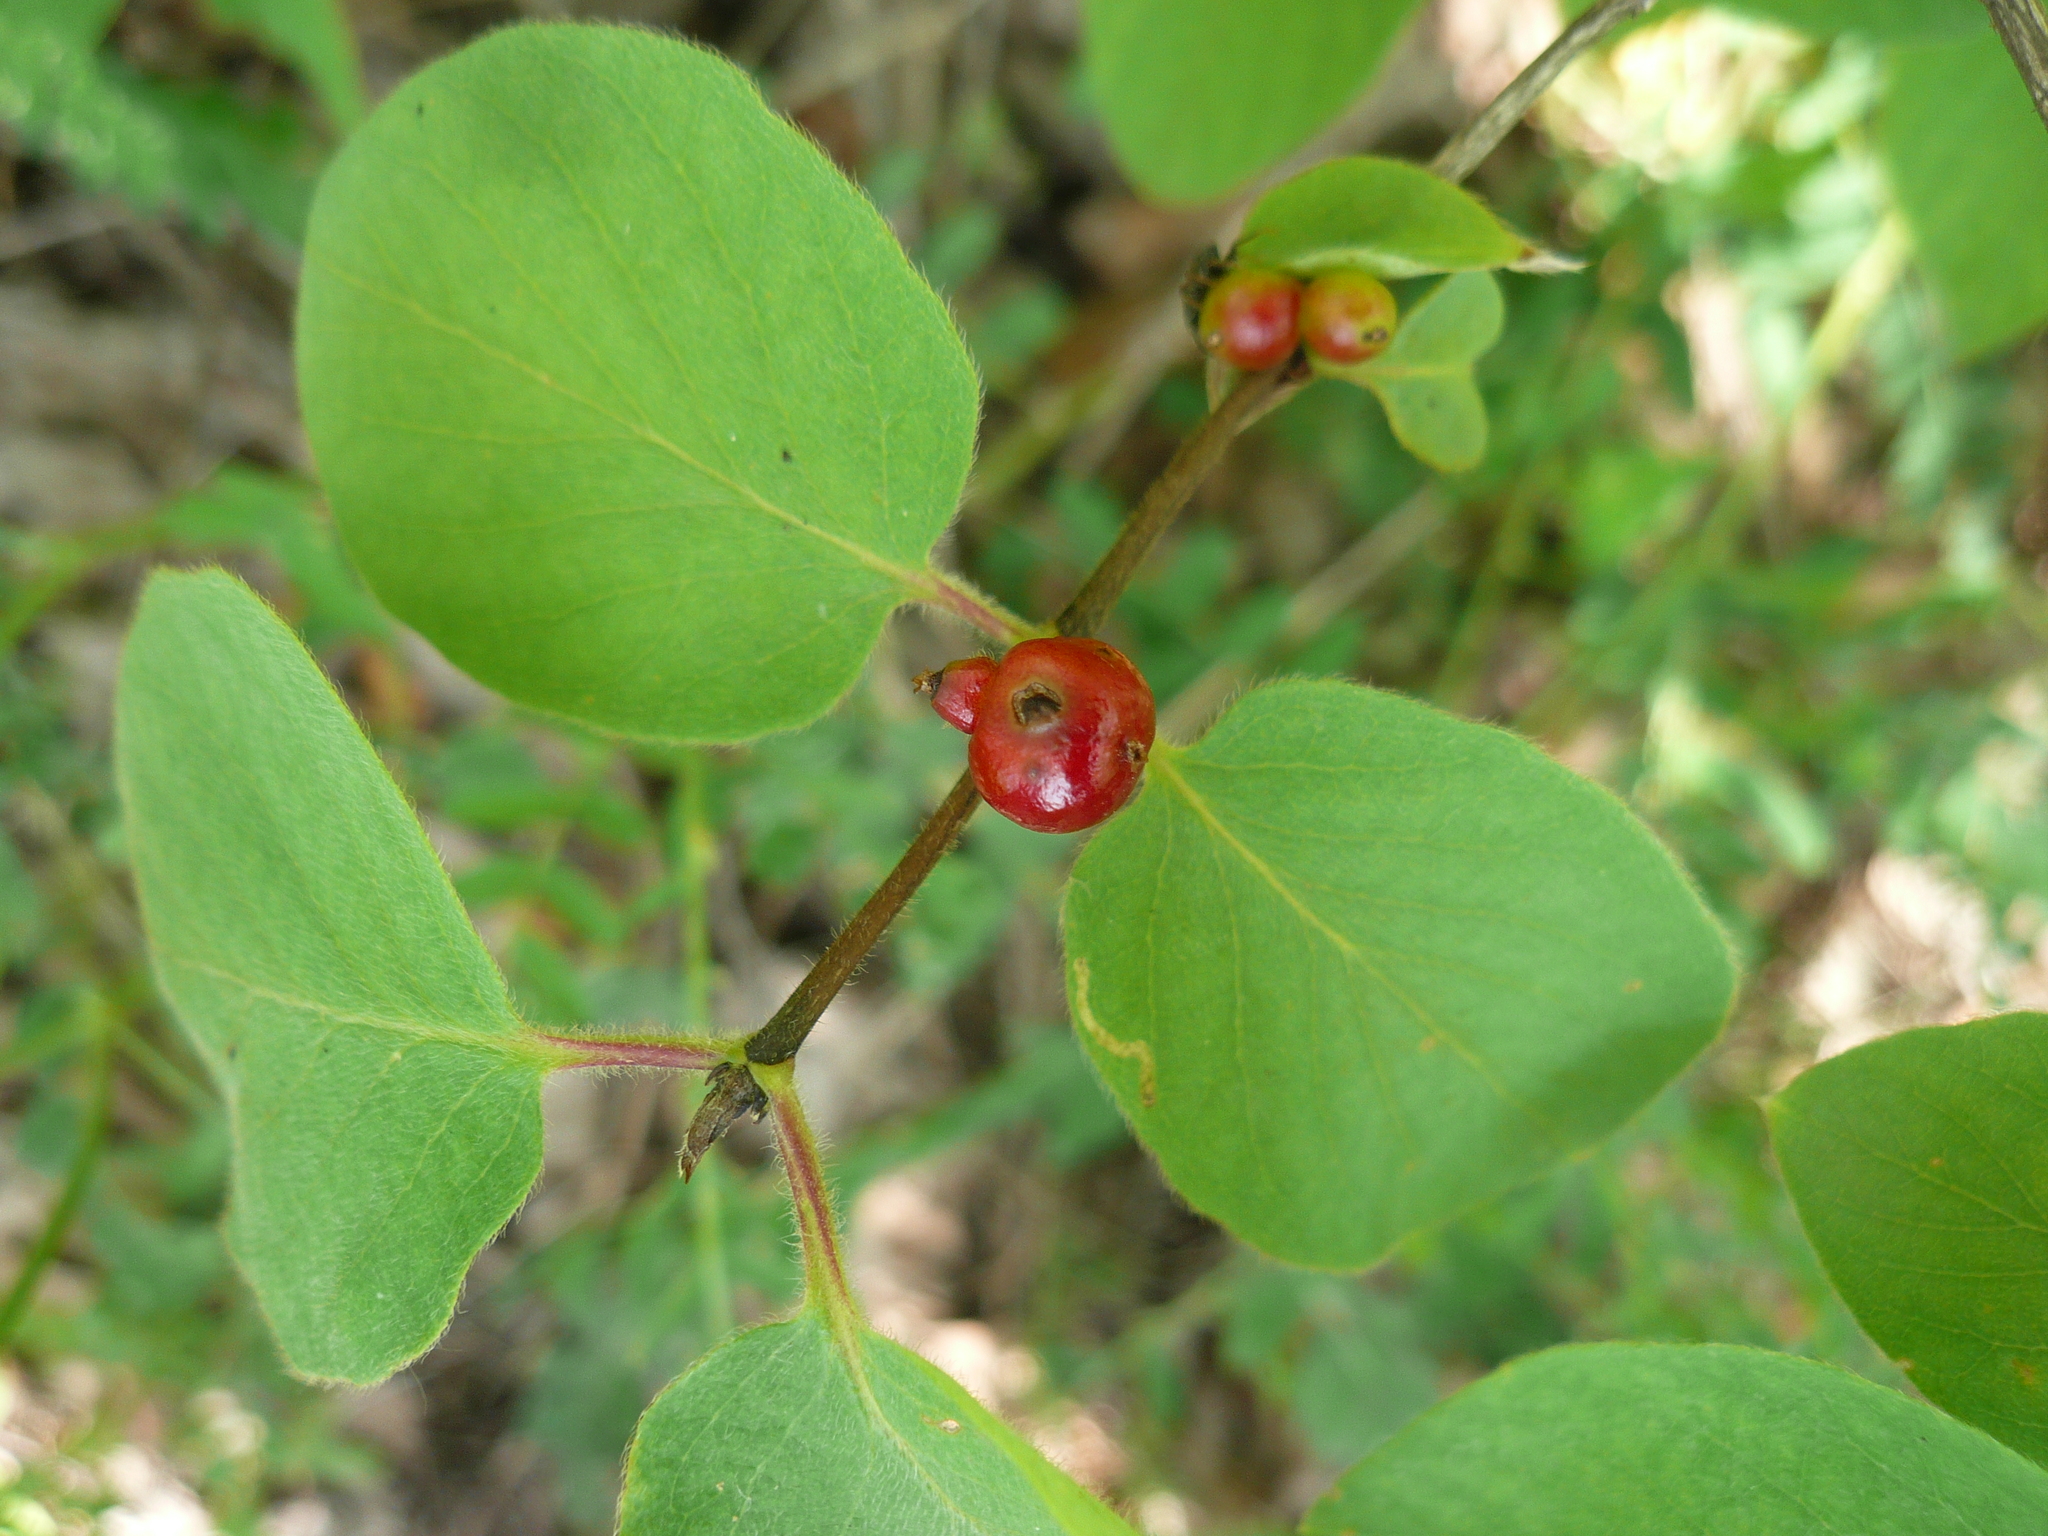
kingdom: Plantae
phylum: Tracheophyta
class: Magnoliopsida
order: Dipsacales
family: Caprifoliaceae
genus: Lonicera
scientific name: Lonicera xylosteum
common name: Fly honeysuckle
